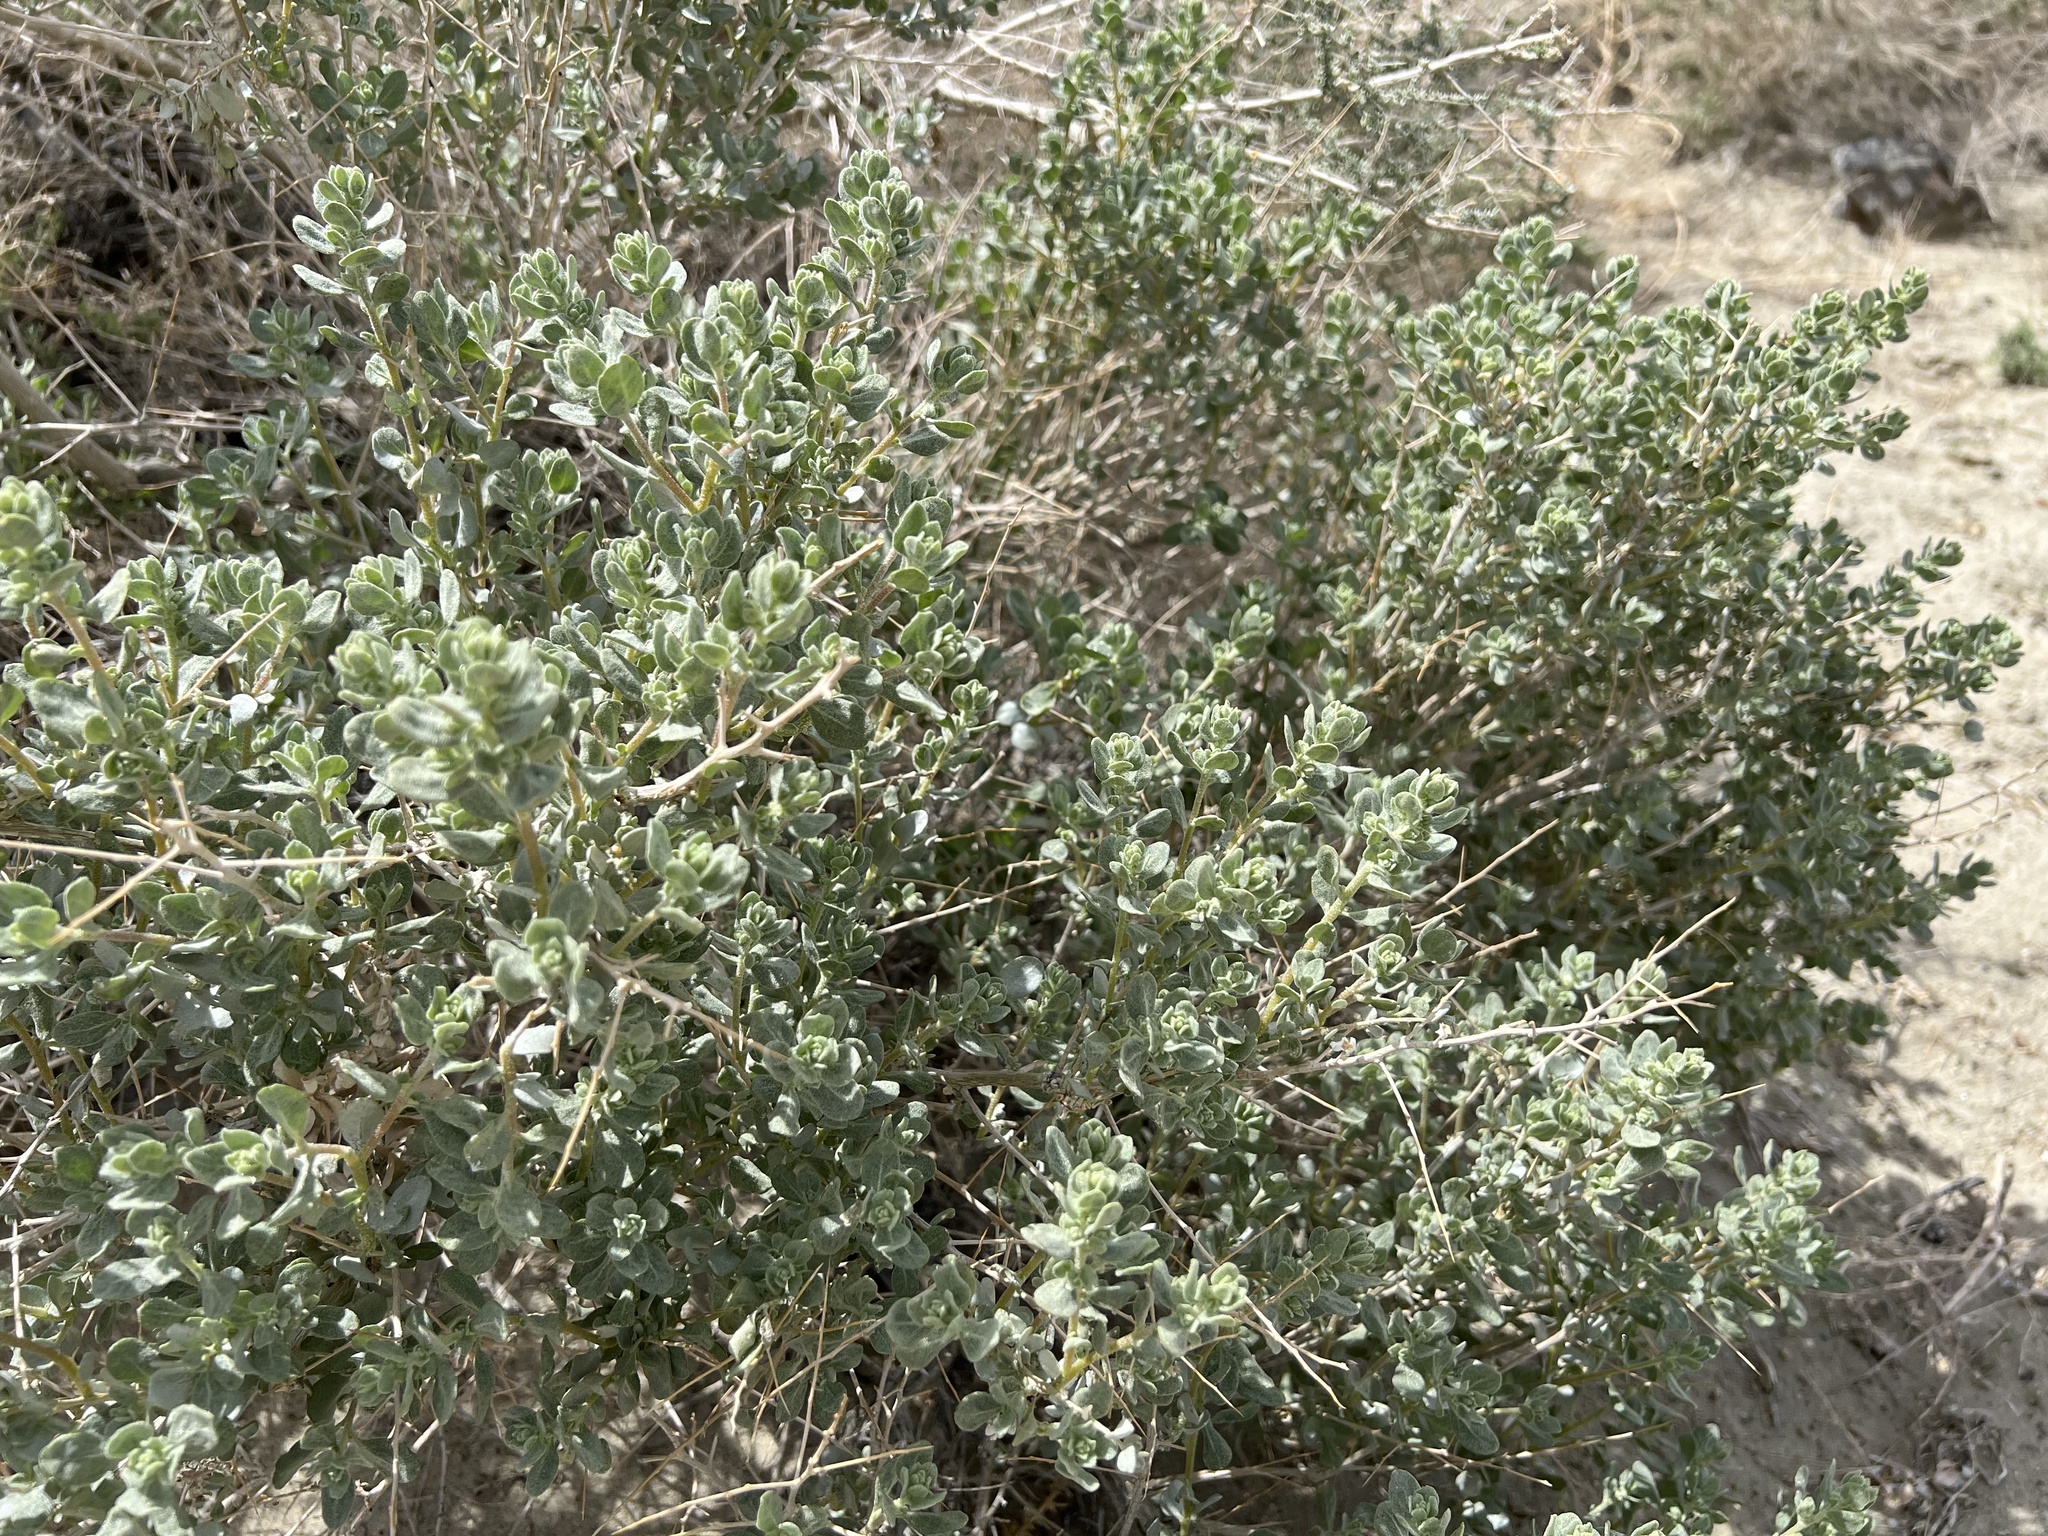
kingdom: Plantae
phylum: Tracheophyta
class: Magnoliopsida
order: Caryophyllales
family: Amaranthaceae
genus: Atriplex
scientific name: Atriplex confertifolia
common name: Shadscale
